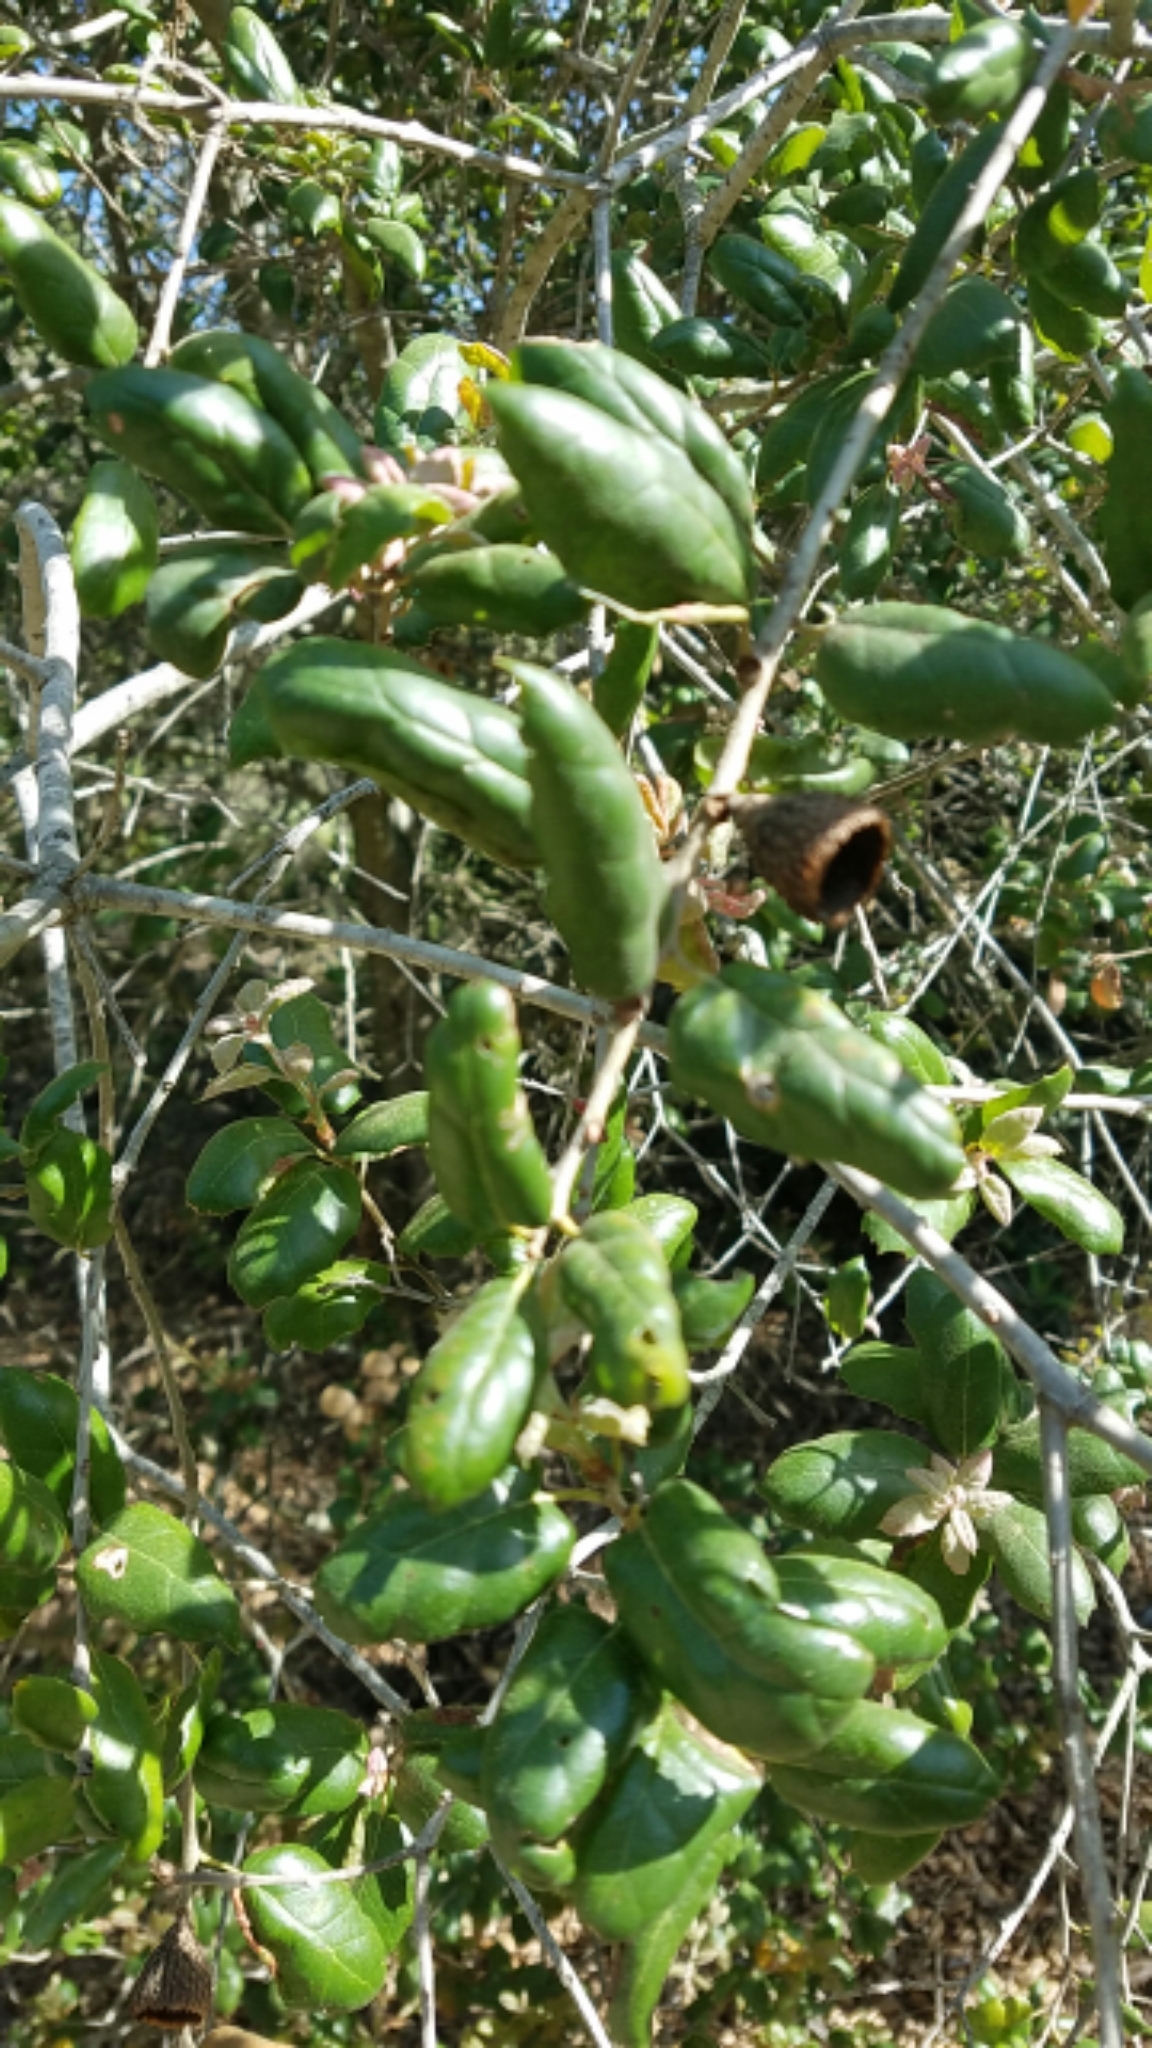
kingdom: Plantae
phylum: Tracheophyta
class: Magnoliopsida
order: Fagales
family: Fagaceae
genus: Quercus
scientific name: Quercus agrifolia
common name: California live oak
